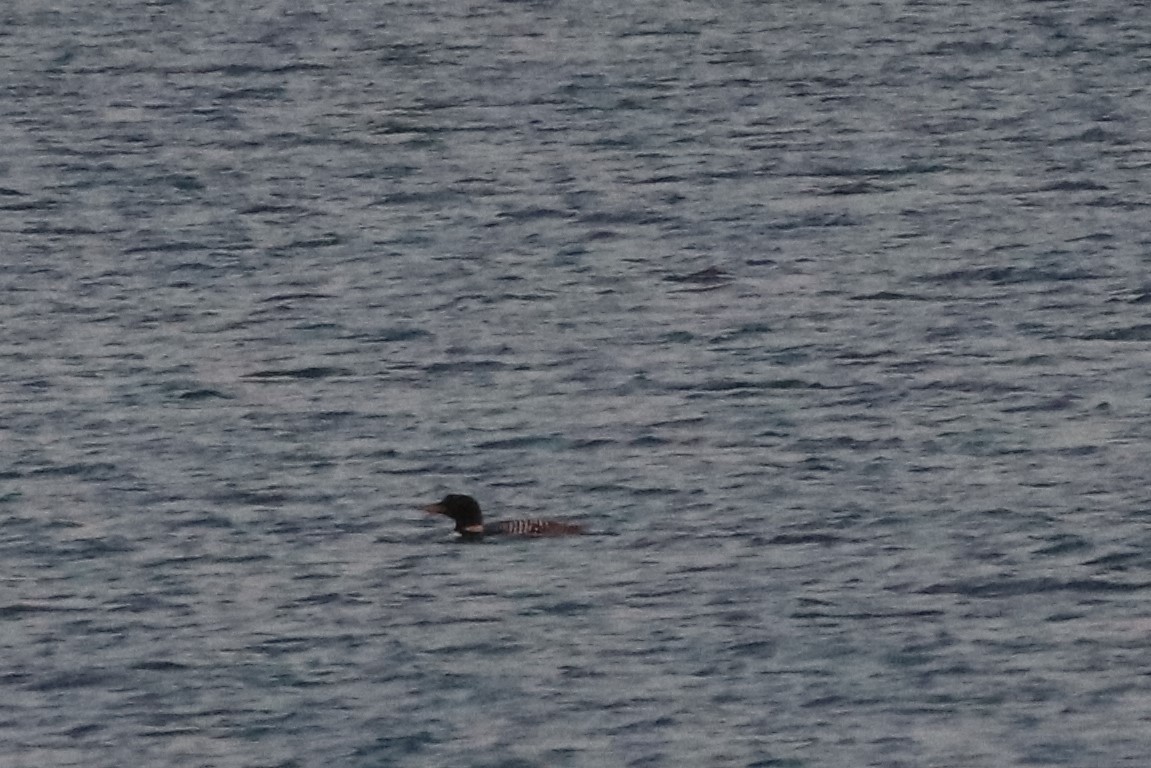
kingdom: Animalia
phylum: Chordata
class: Aves
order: Gaviiformes
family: Gaviidae
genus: Gavia
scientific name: Gavia immer
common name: Common loon
